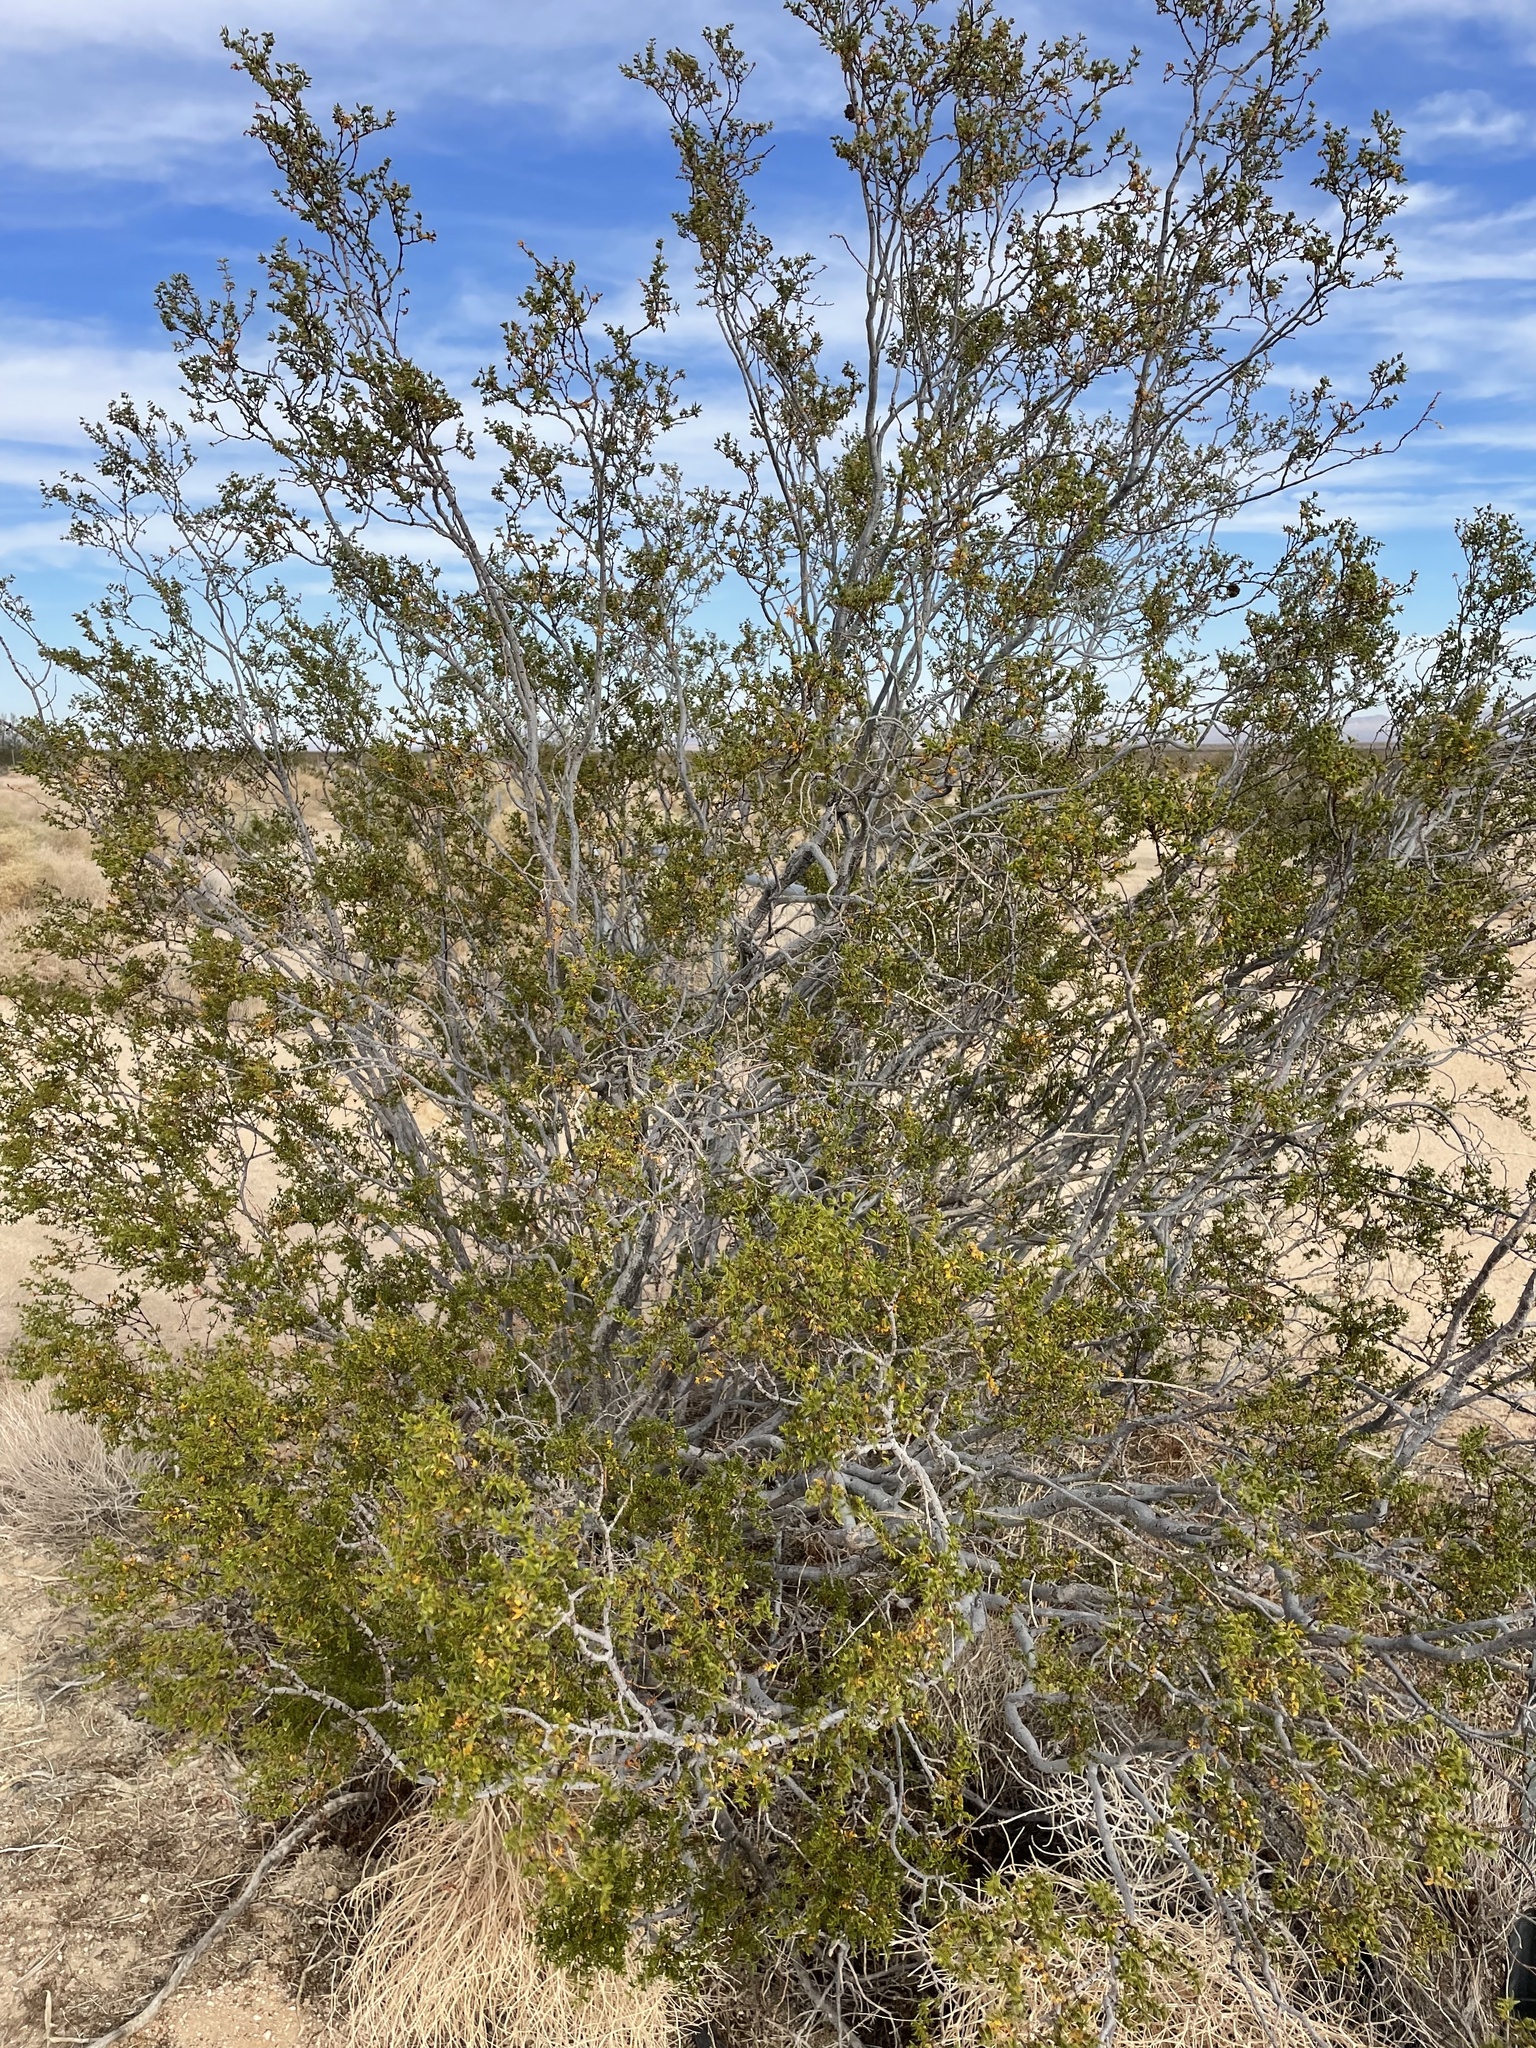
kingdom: Plantae
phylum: Tracheophyta
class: Magnoliopsida
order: Zygophyllales
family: Zygophyllaceae
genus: Larrea
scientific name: Larrea tridentata
